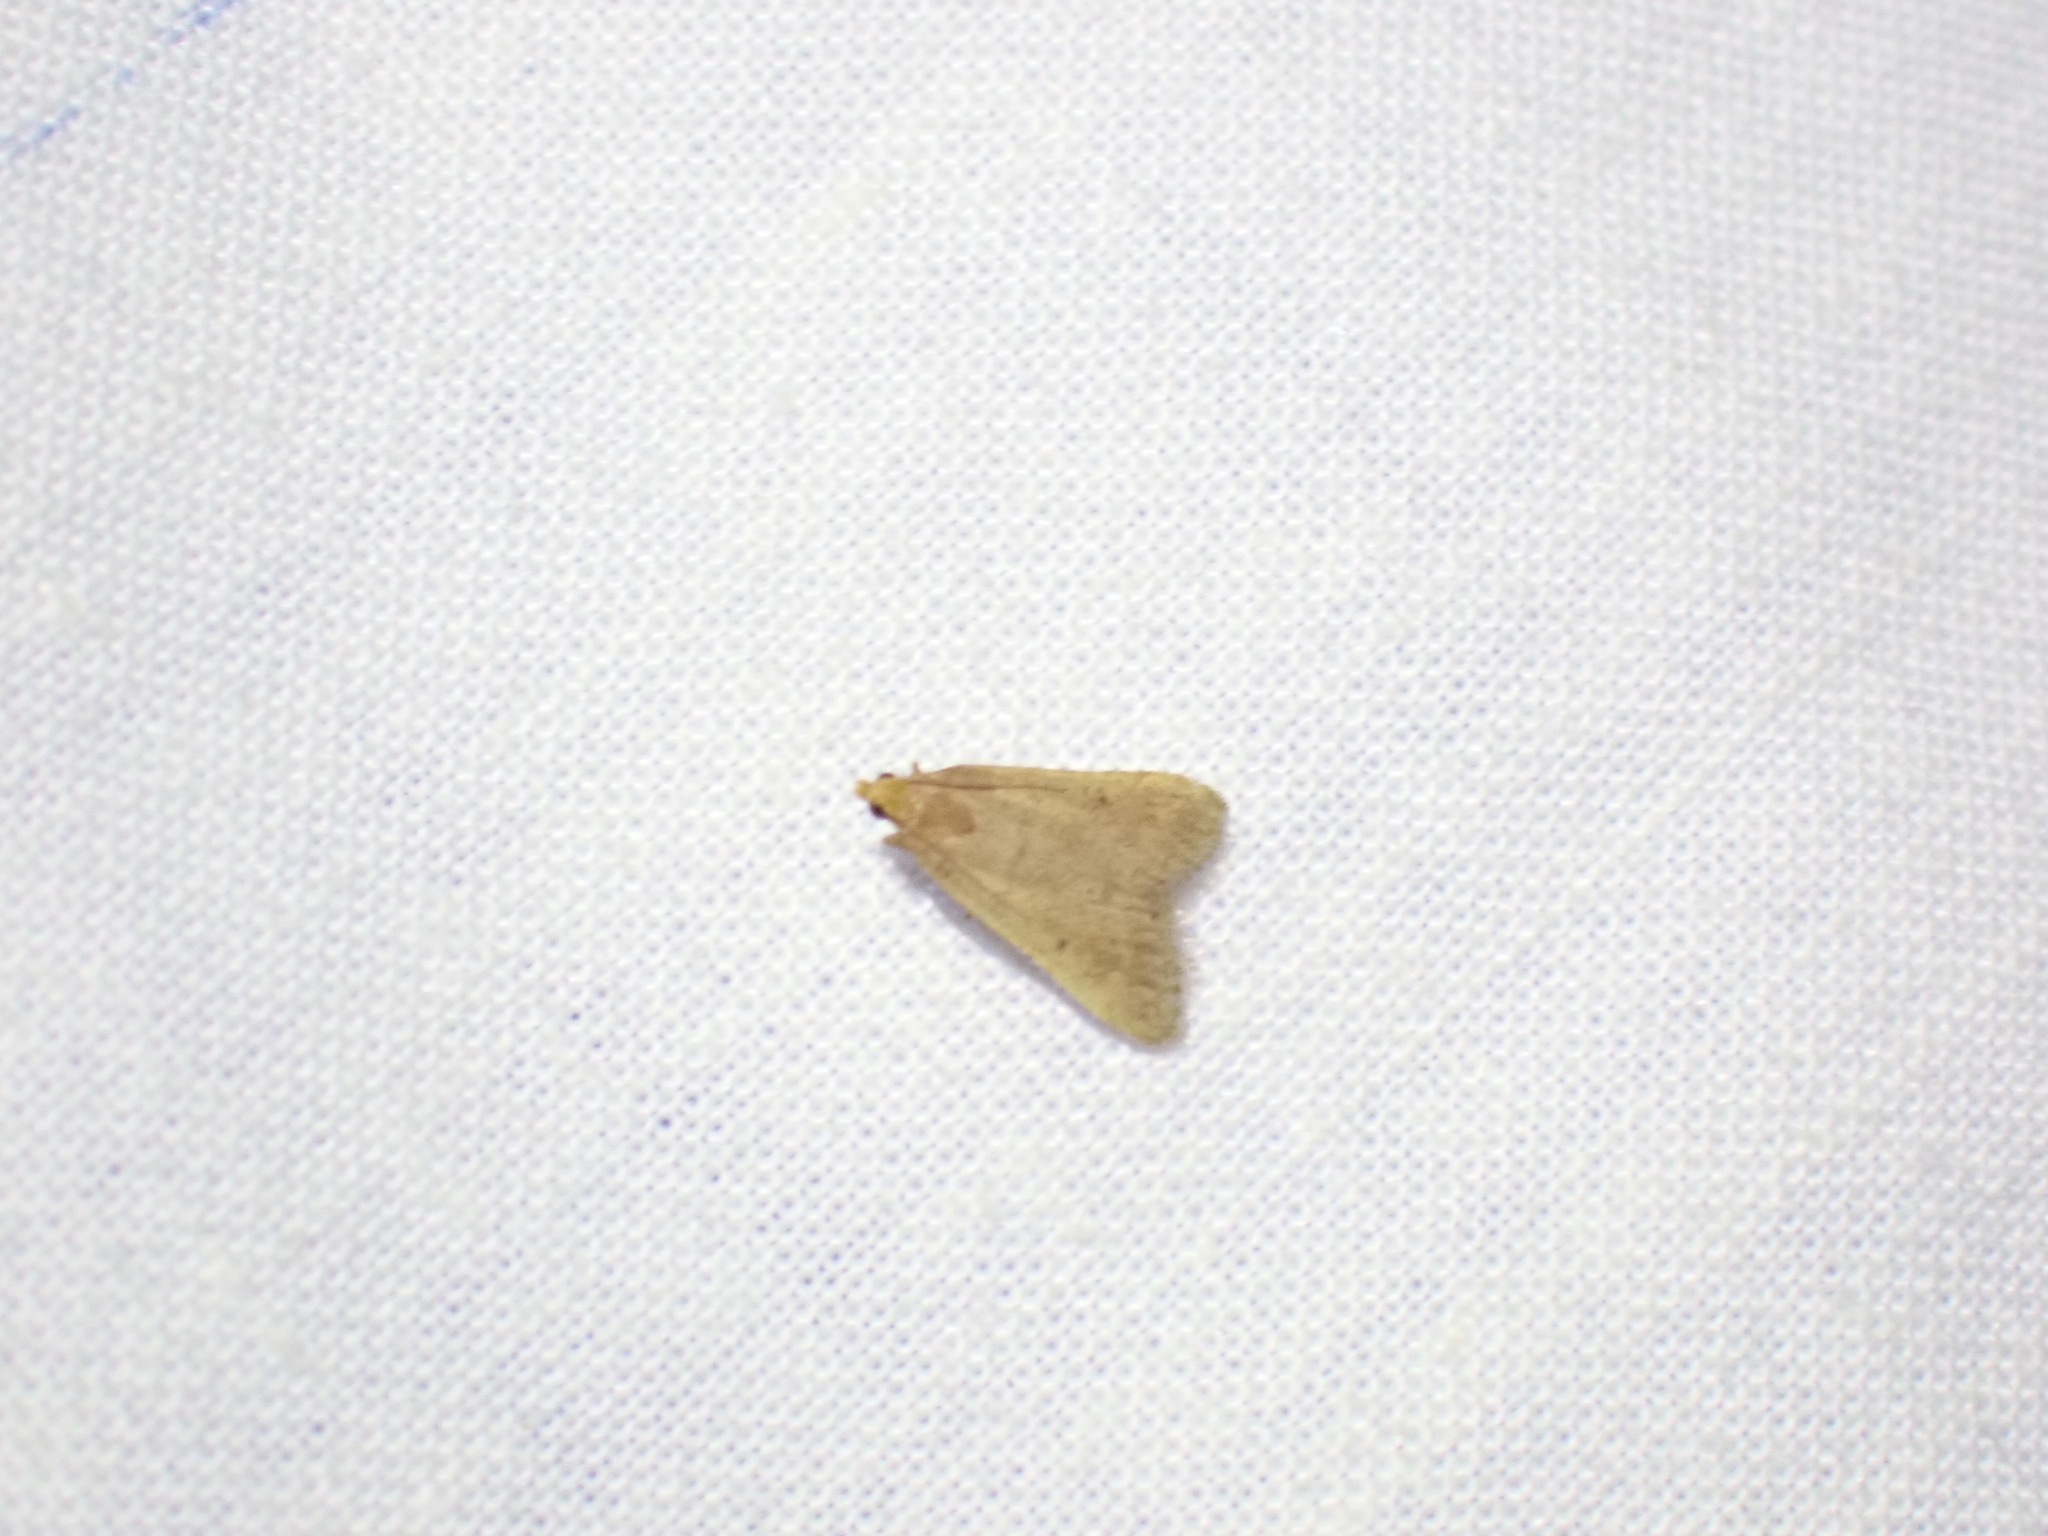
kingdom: Animalia
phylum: Arthropoda
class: Insecta
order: Lepidoptera
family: Pyralidae
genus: Bostra
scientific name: Bostra obsoletalis
